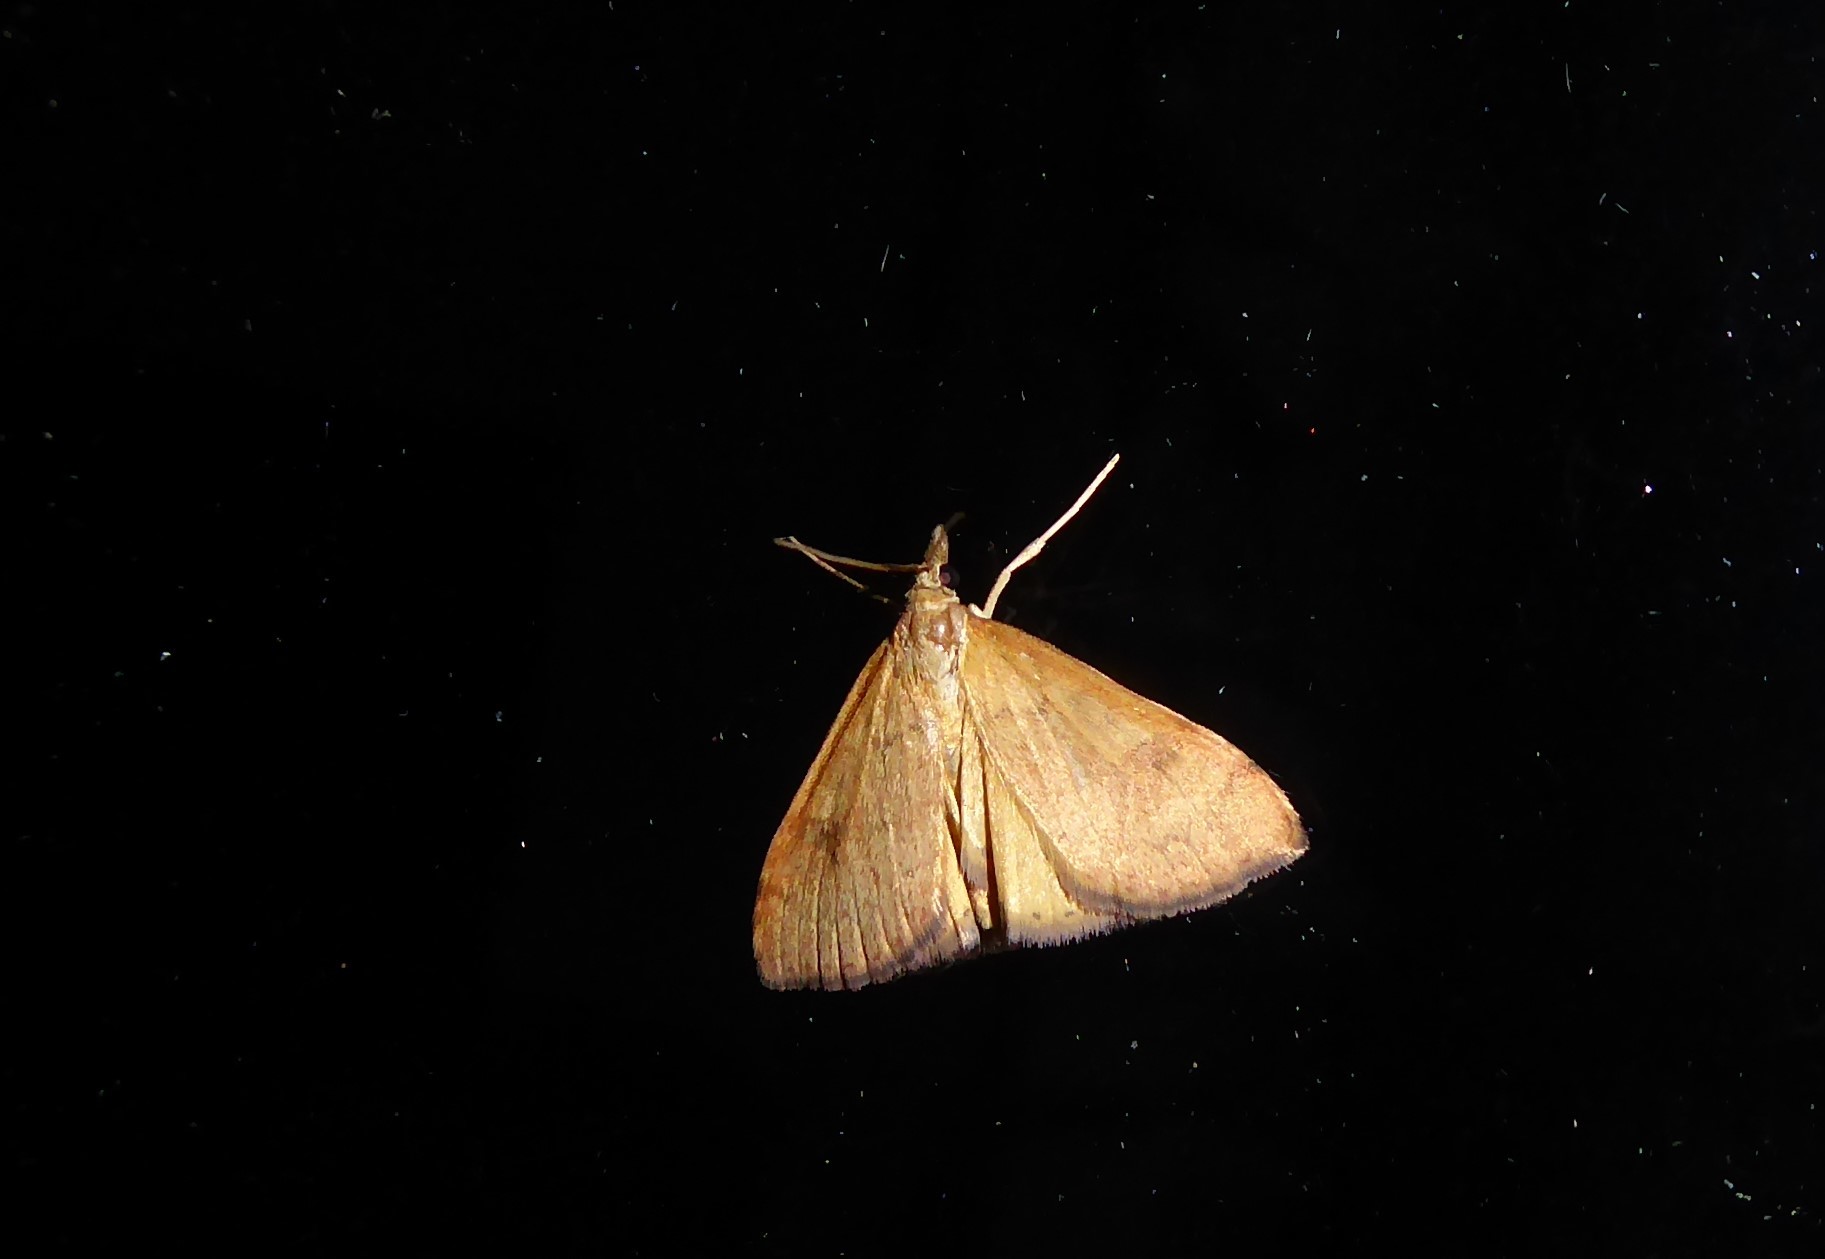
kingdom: Animalia
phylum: Arthropoda
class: Insecta
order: Lepidoptera
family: Crambidae
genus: Udea
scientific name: Udea Mnesictena flavidalis
